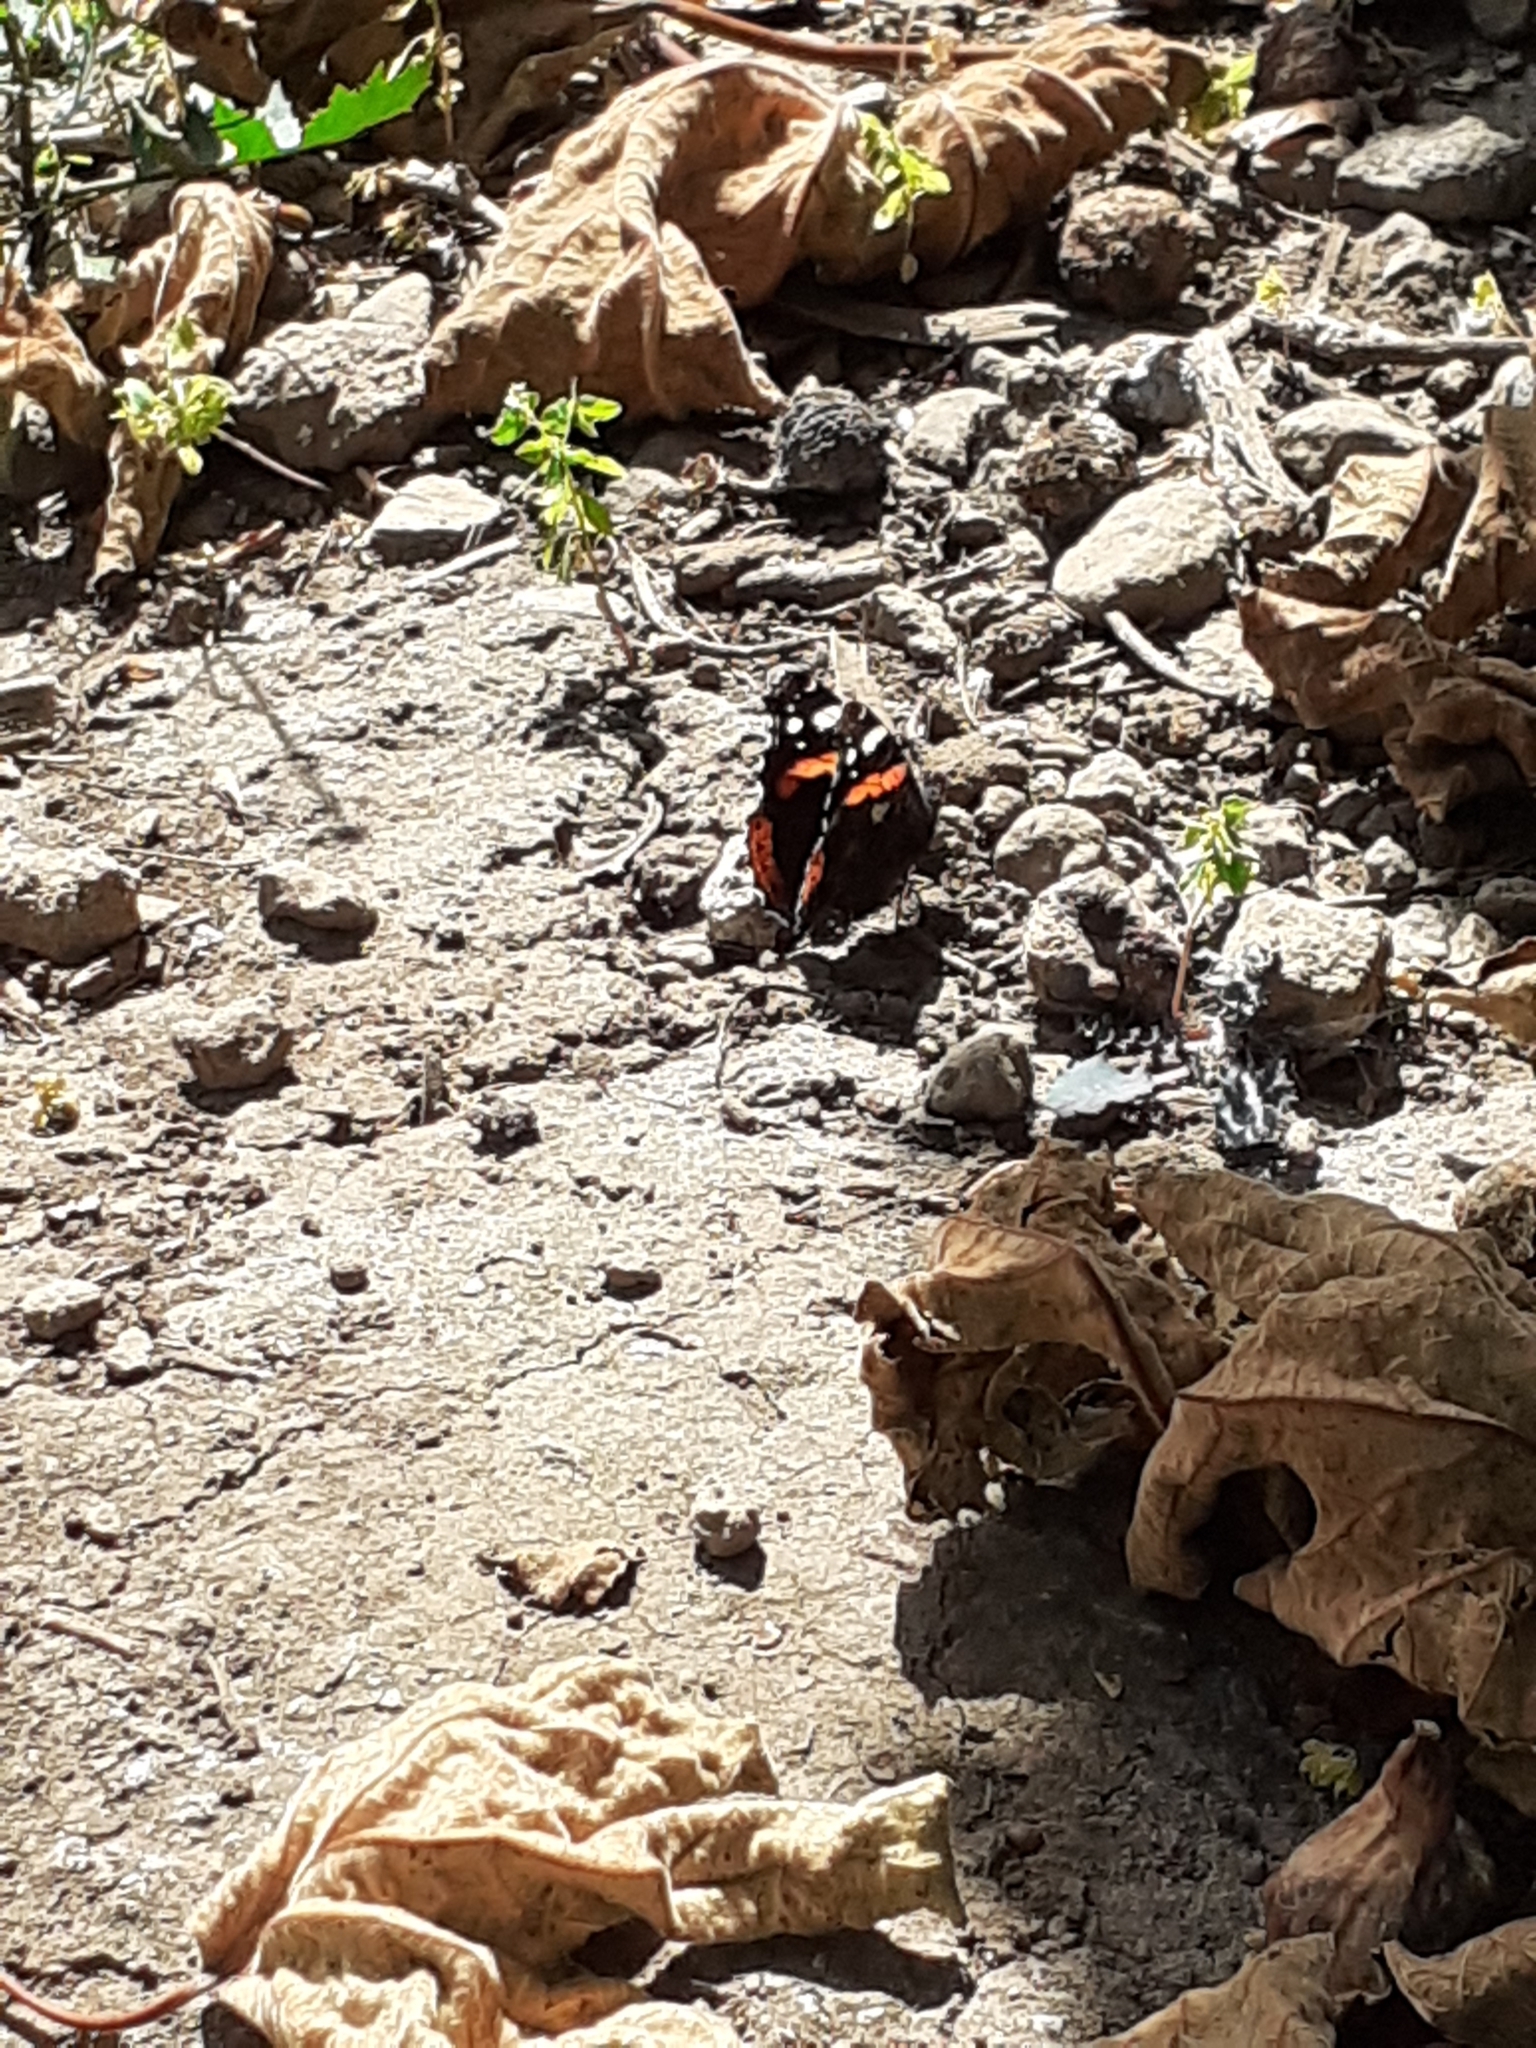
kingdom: Animalia
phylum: Arthropoda
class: Insecta
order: Lepidoptera
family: Nymphalidae
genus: Vanessa
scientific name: Vanessa atalanta
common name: Red admiral
